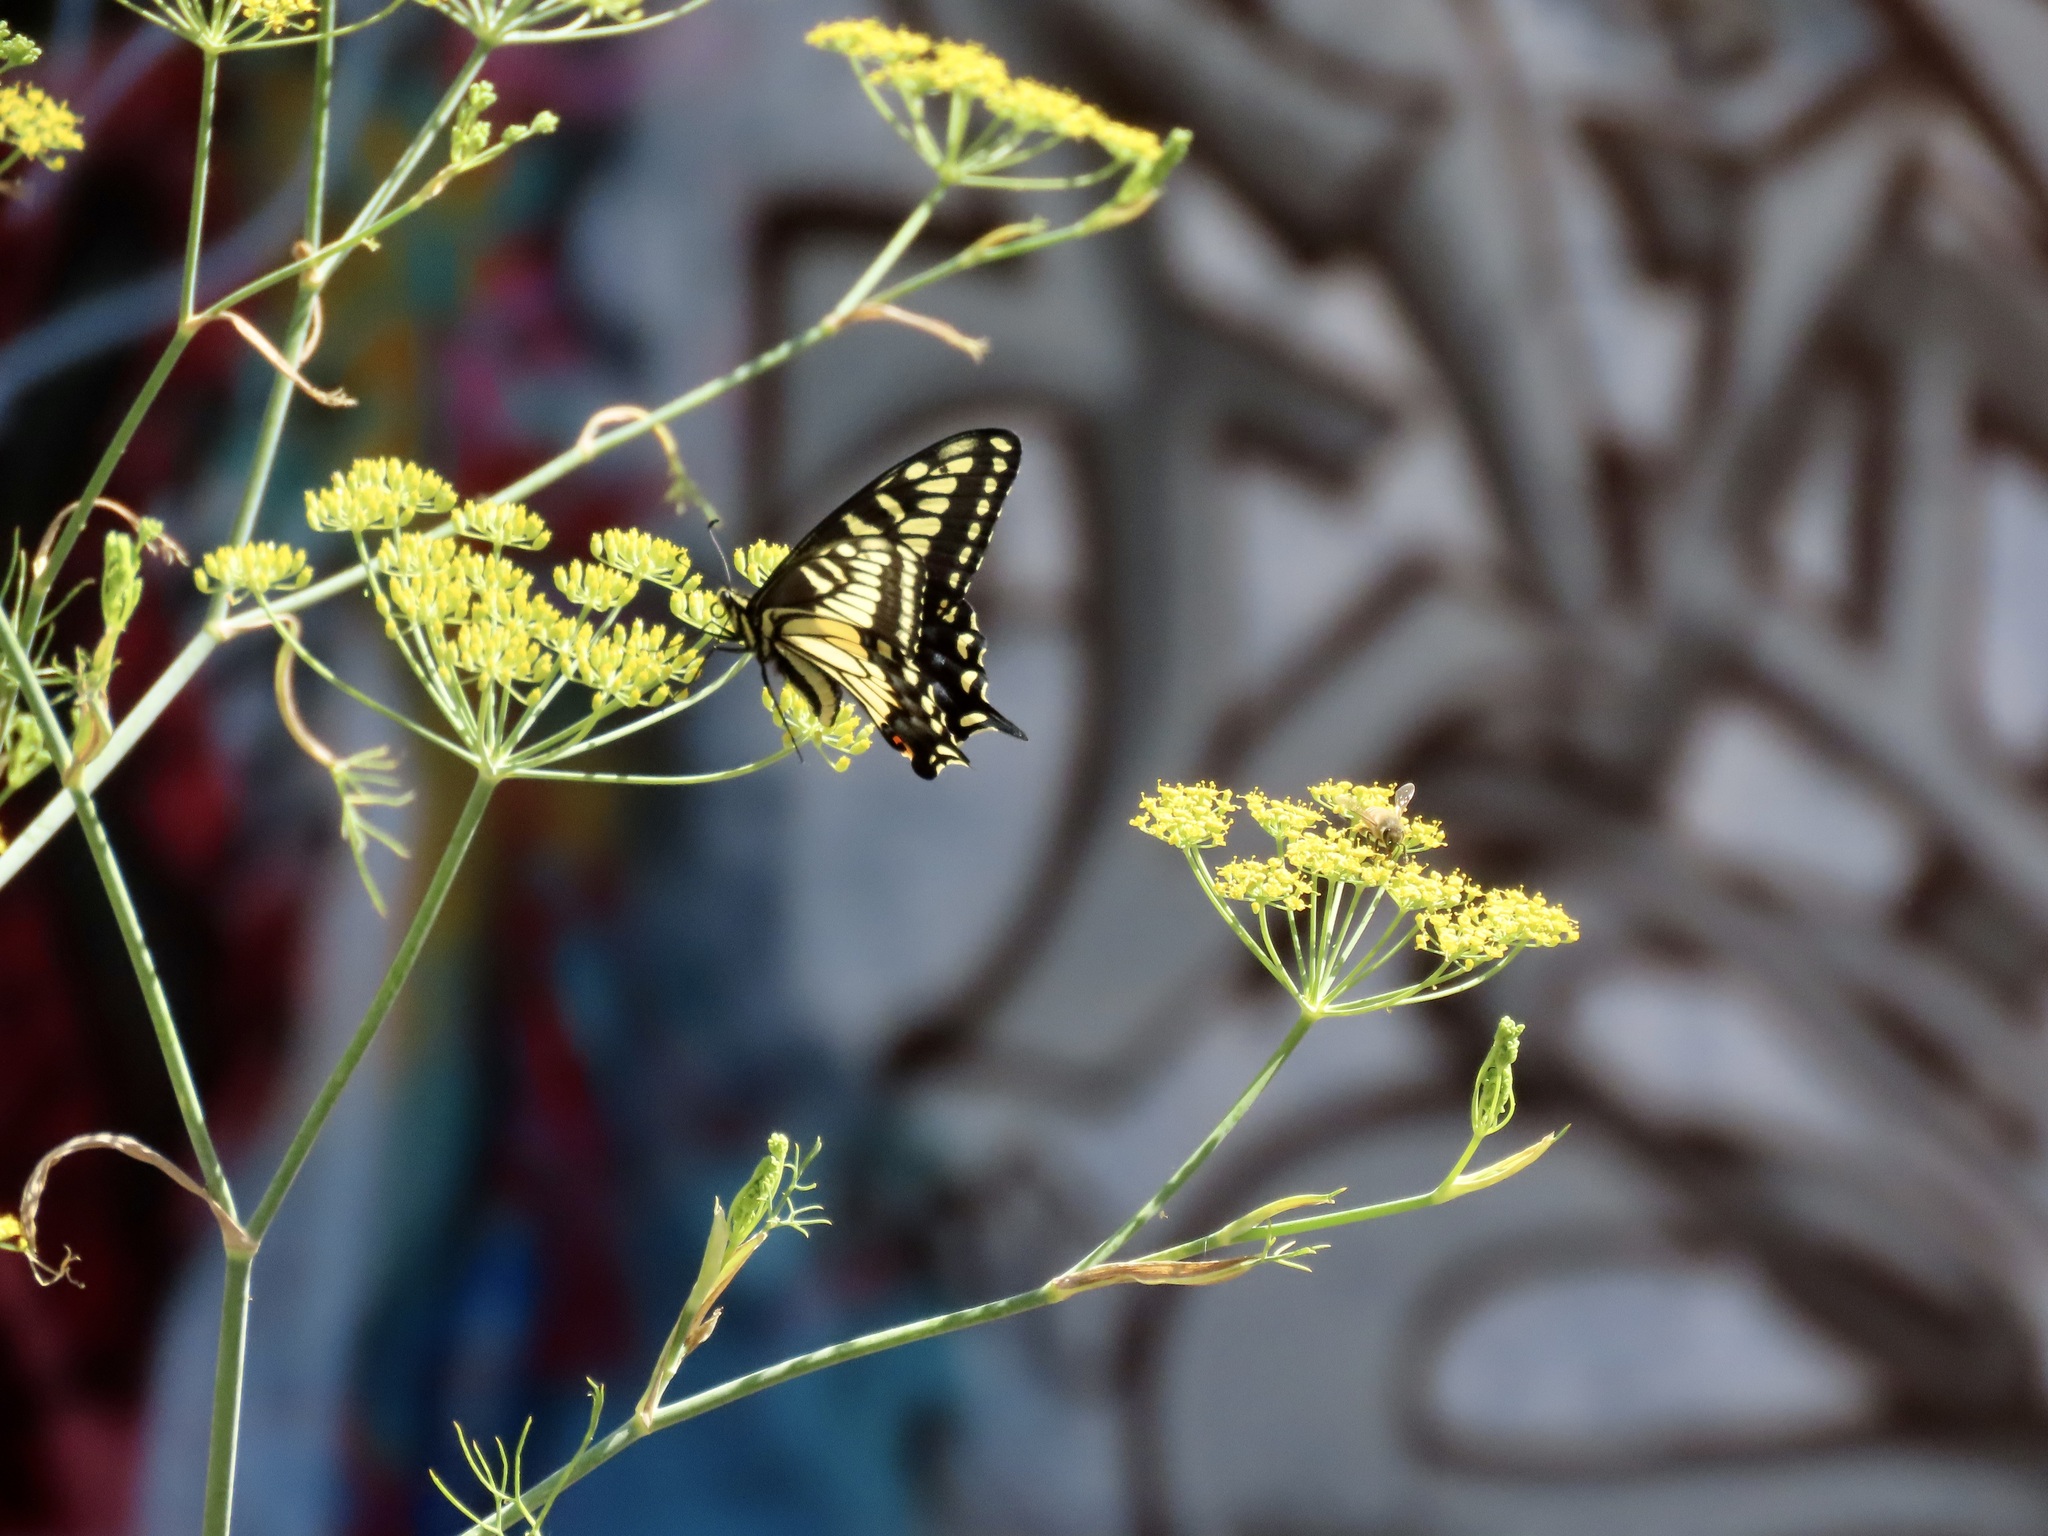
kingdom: Animalia
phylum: Arthropoda
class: Insecta
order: Lepidoptera
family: Papilionidae
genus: Papilio
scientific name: Papilio zelicaon
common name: Anise swallowtail
